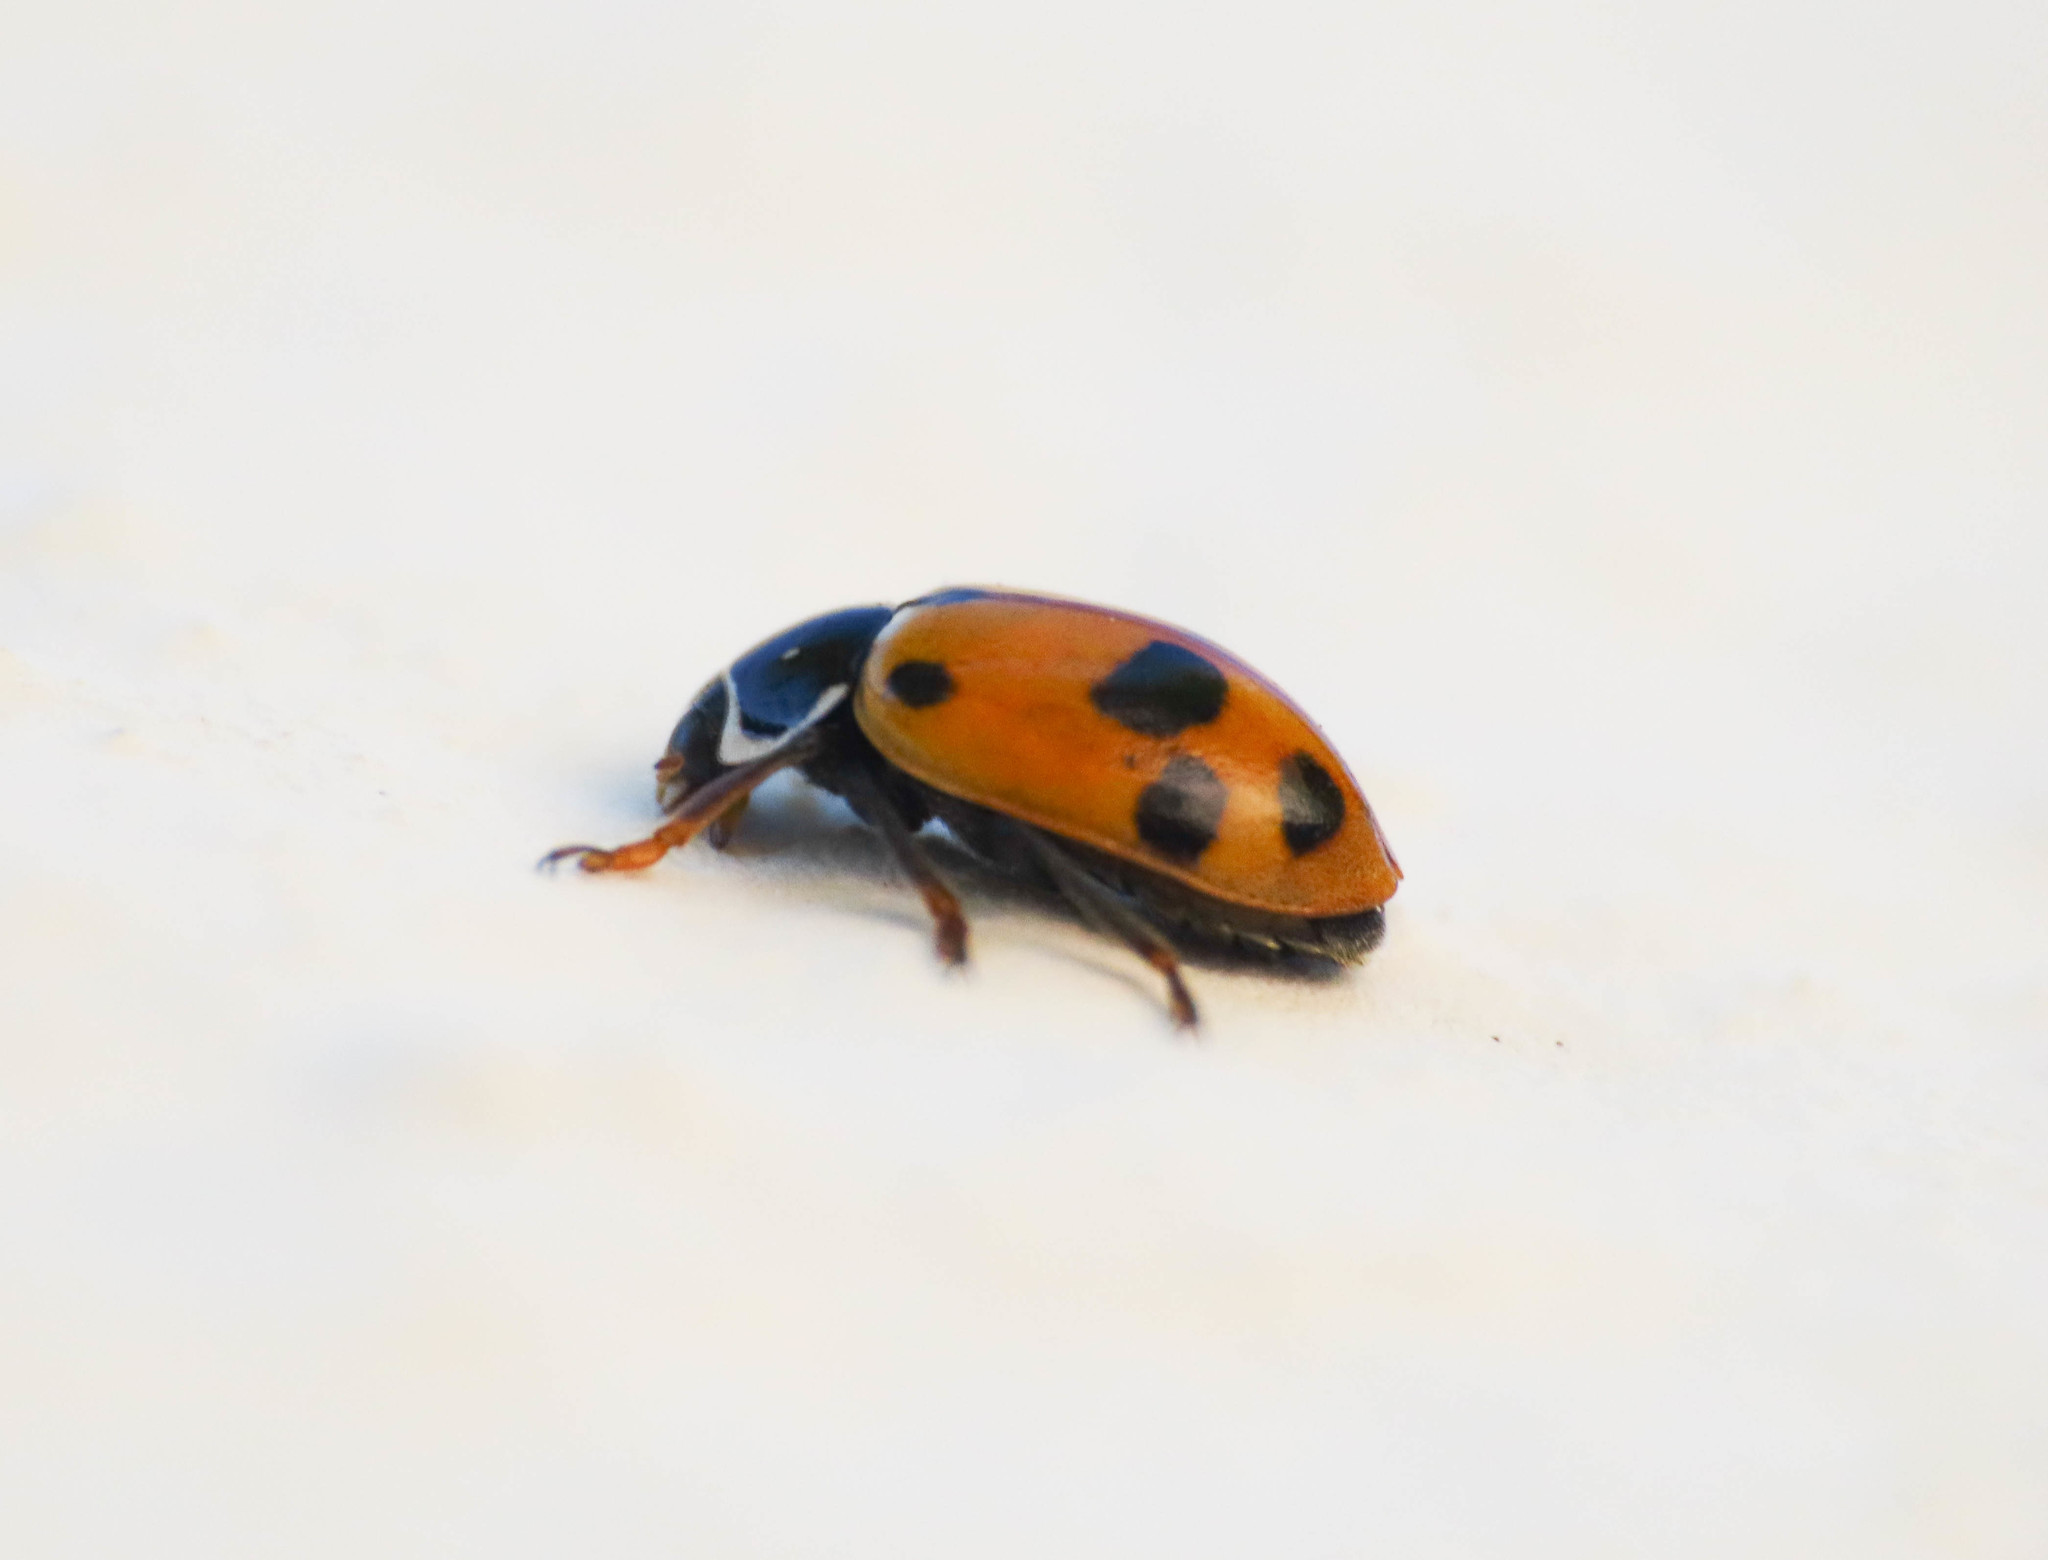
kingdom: Animalia
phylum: Arthropoda
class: Insecta
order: Coleoptera
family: Coccinellidae
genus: Hippodamia
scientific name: Hippodamia variegata
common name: Ladybird beetle
